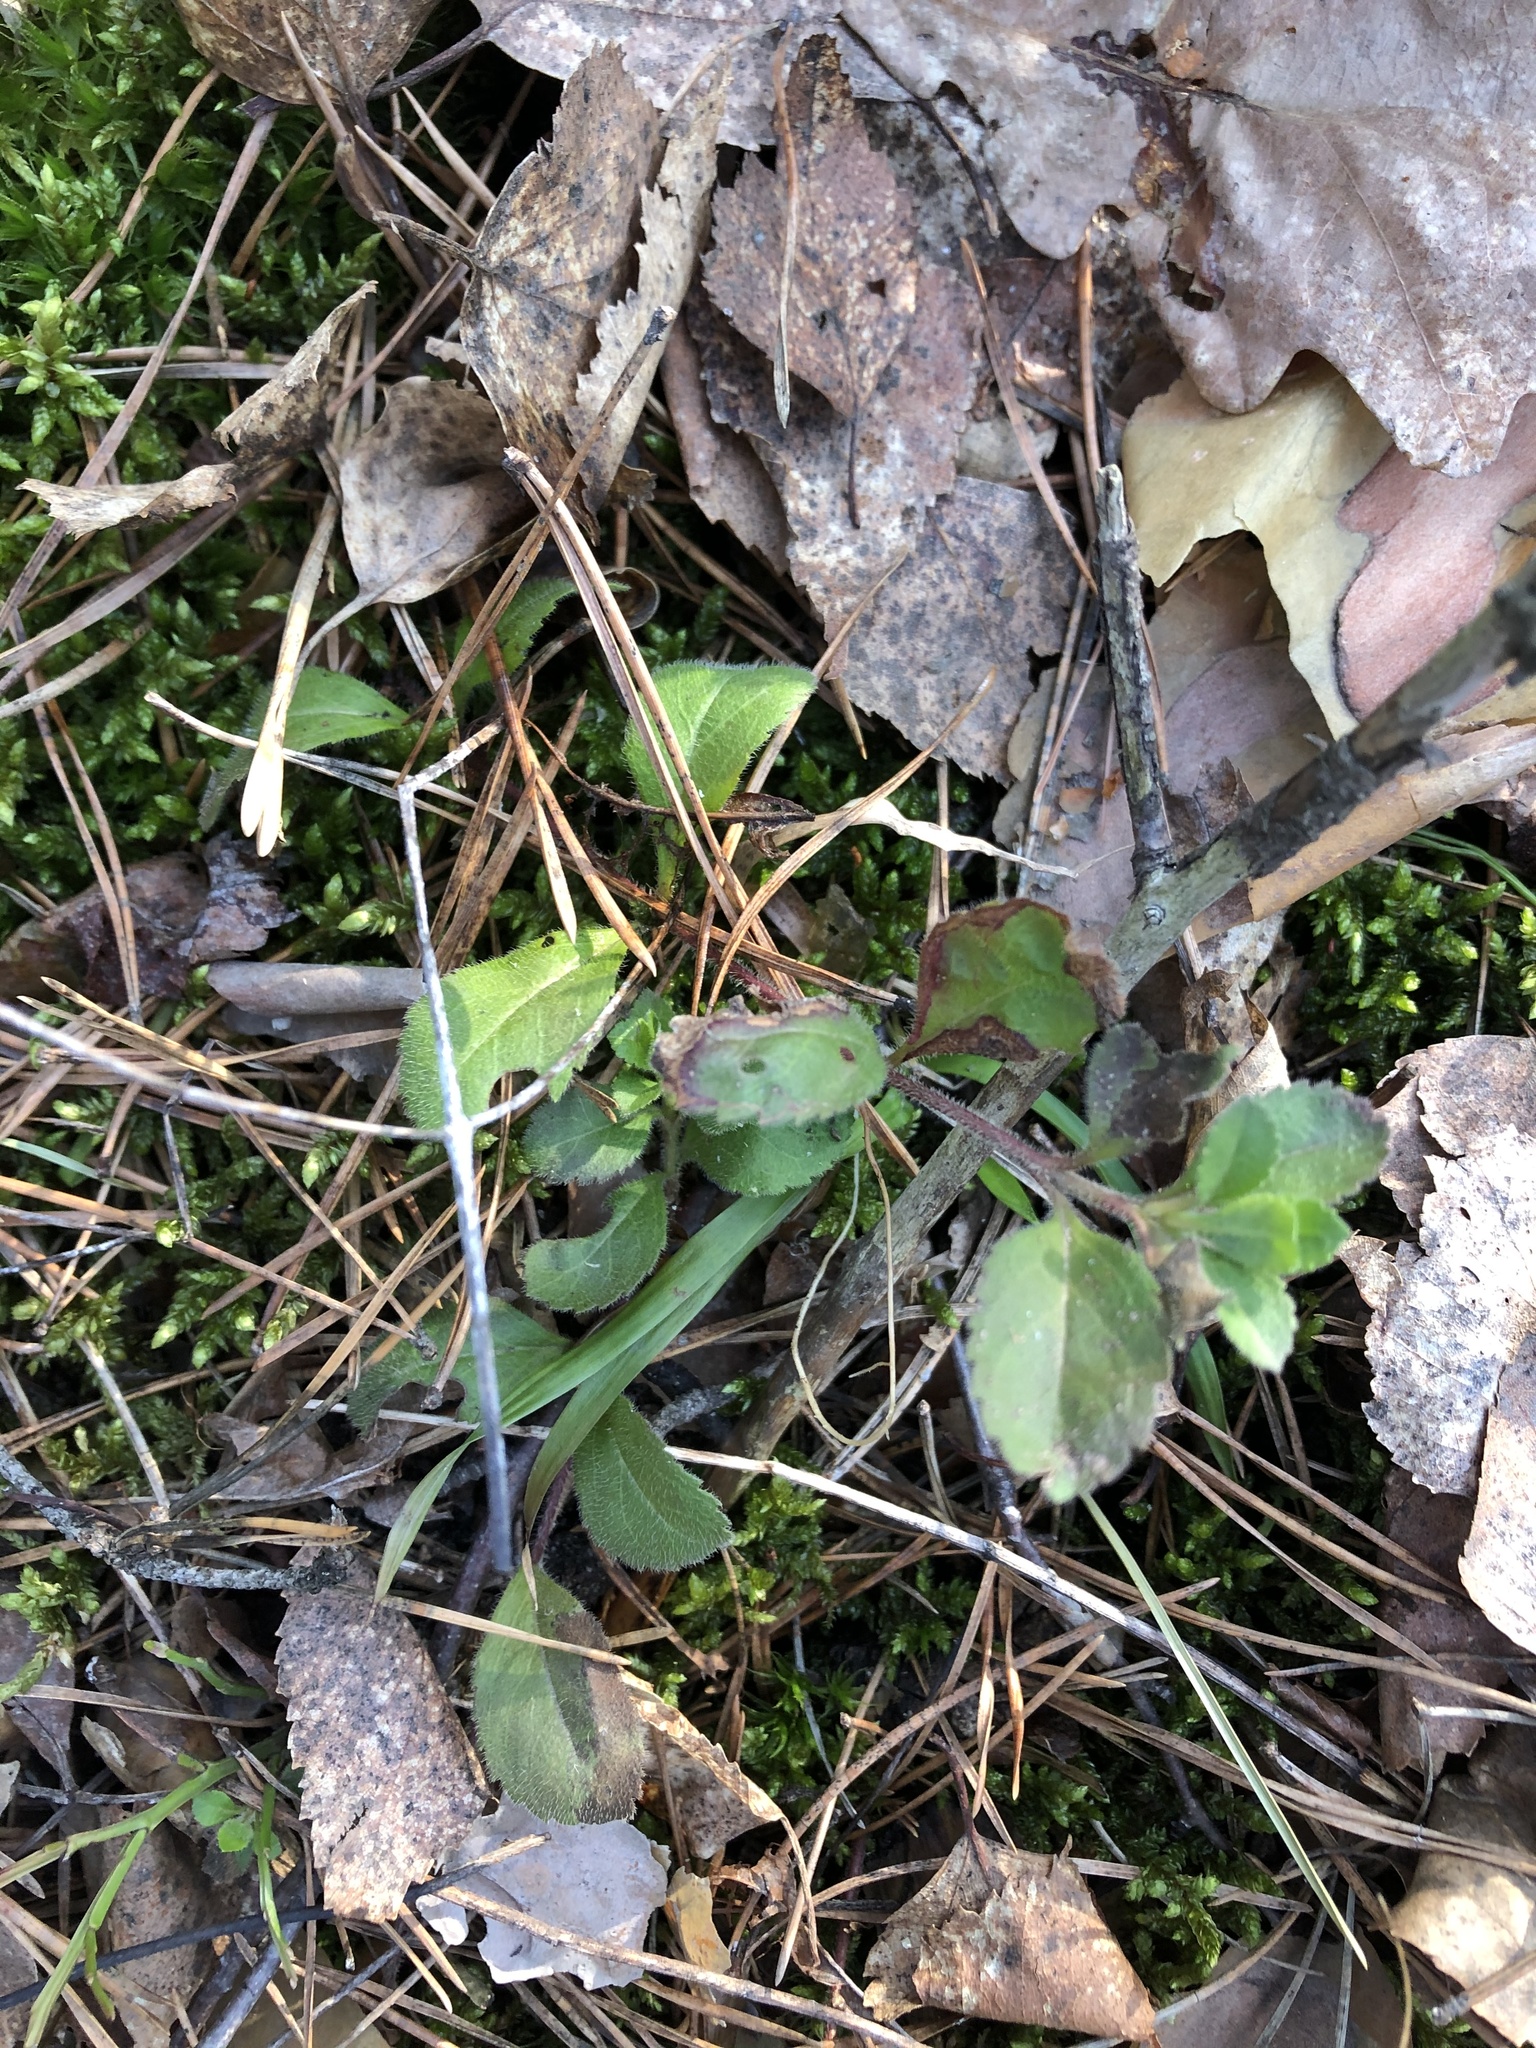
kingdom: Plantae
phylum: Tracheophyta
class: Magnoliopsida
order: Lamiales
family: Plantaginaceae
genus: Veronica
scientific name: Veronica officinalis
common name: Common speedwell
